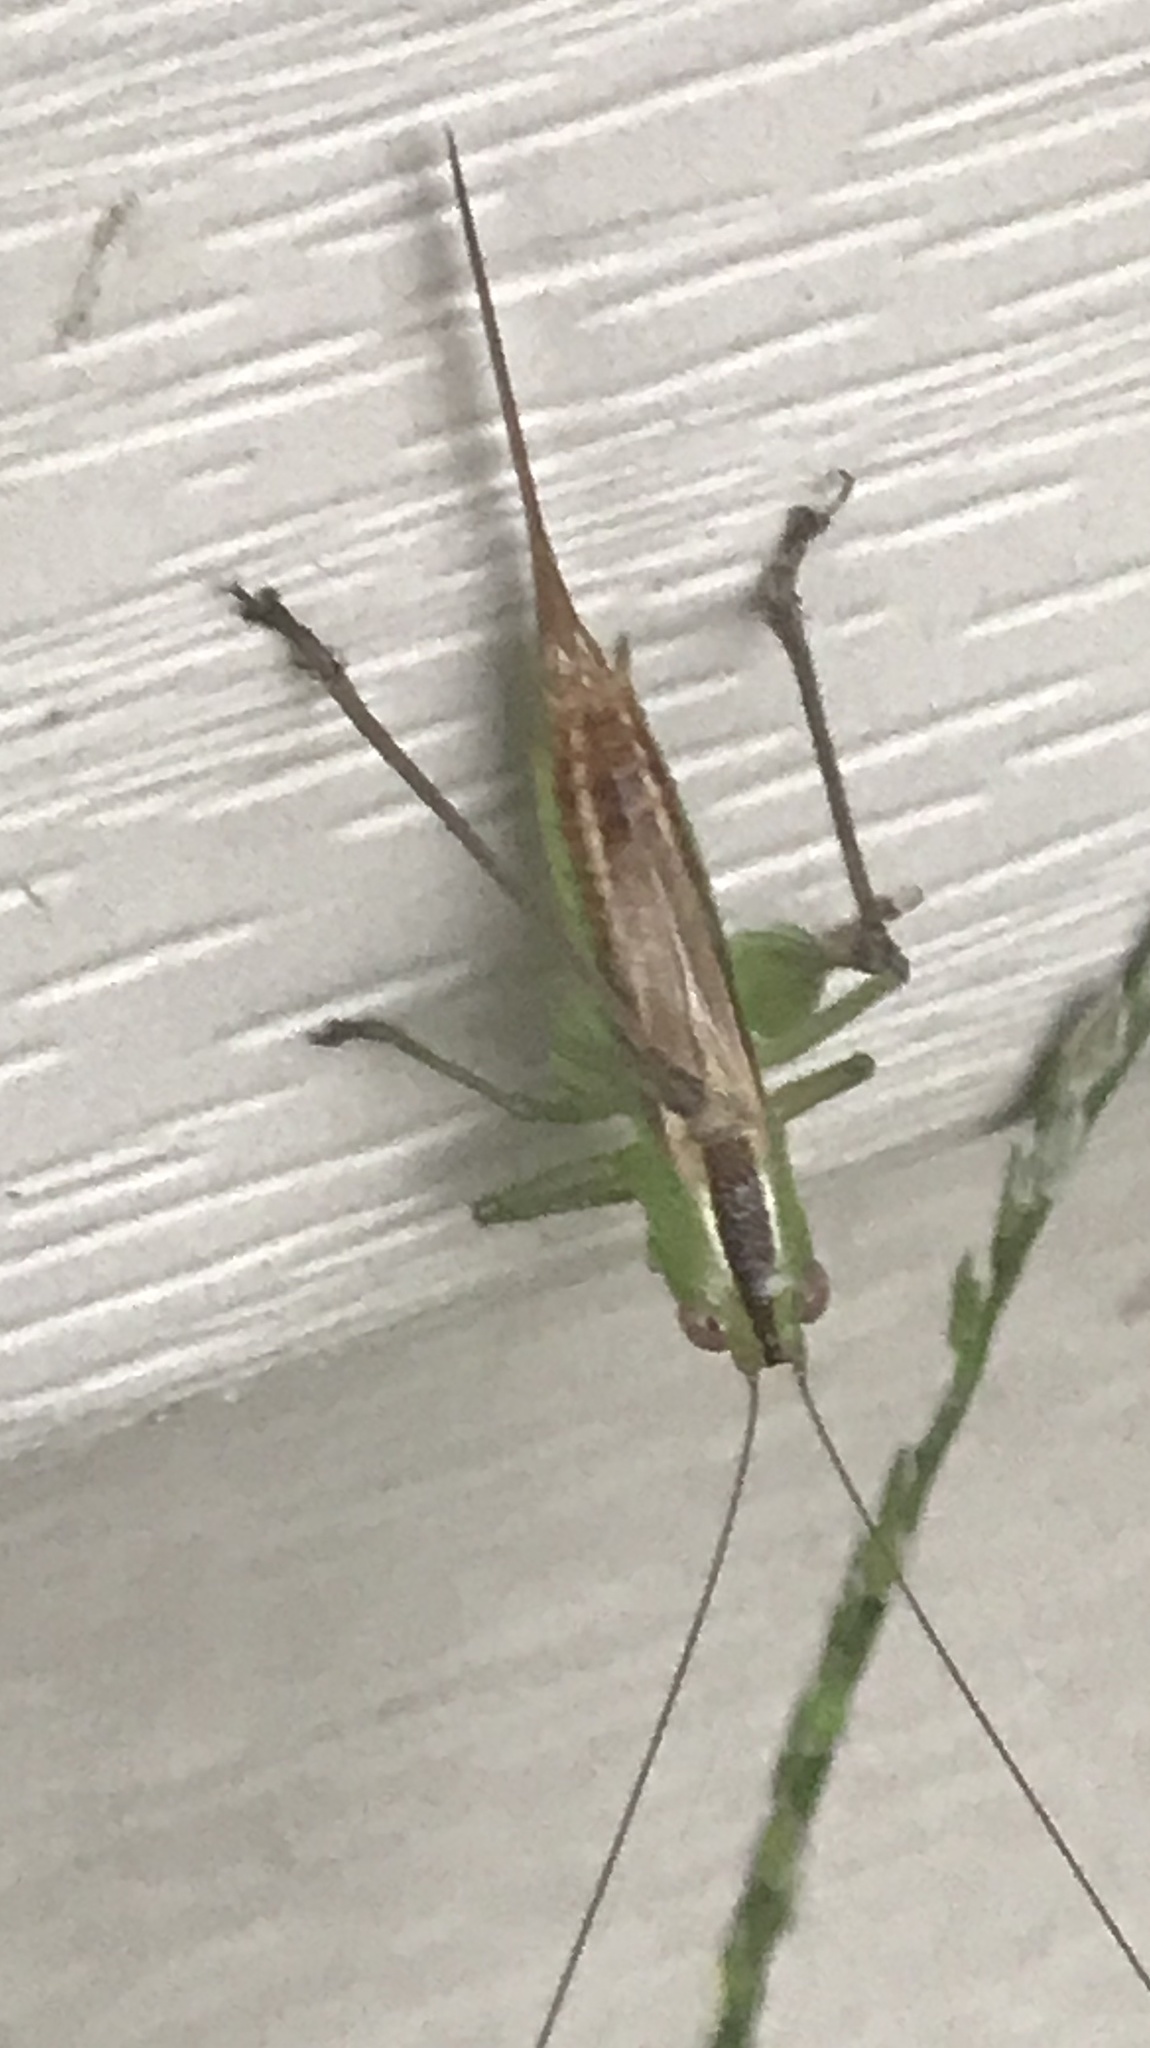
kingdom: Animalia
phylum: Arthropoda
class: Insecta
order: Orthoptera
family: Tettigoniidae
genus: Conocephalus
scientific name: Conocephalus brevipennis
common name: Short-winged meadow katydid
